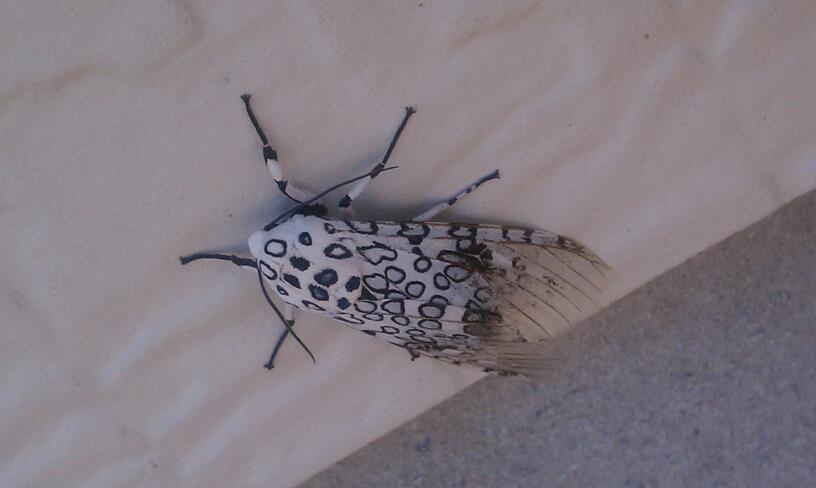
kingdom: Animalia
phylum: Arthropoda
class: Insecta
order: Lepidoptera
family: Erebidae
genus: Hypercompe
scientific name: Hypercompe scribonia
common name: Giant leopard moth
